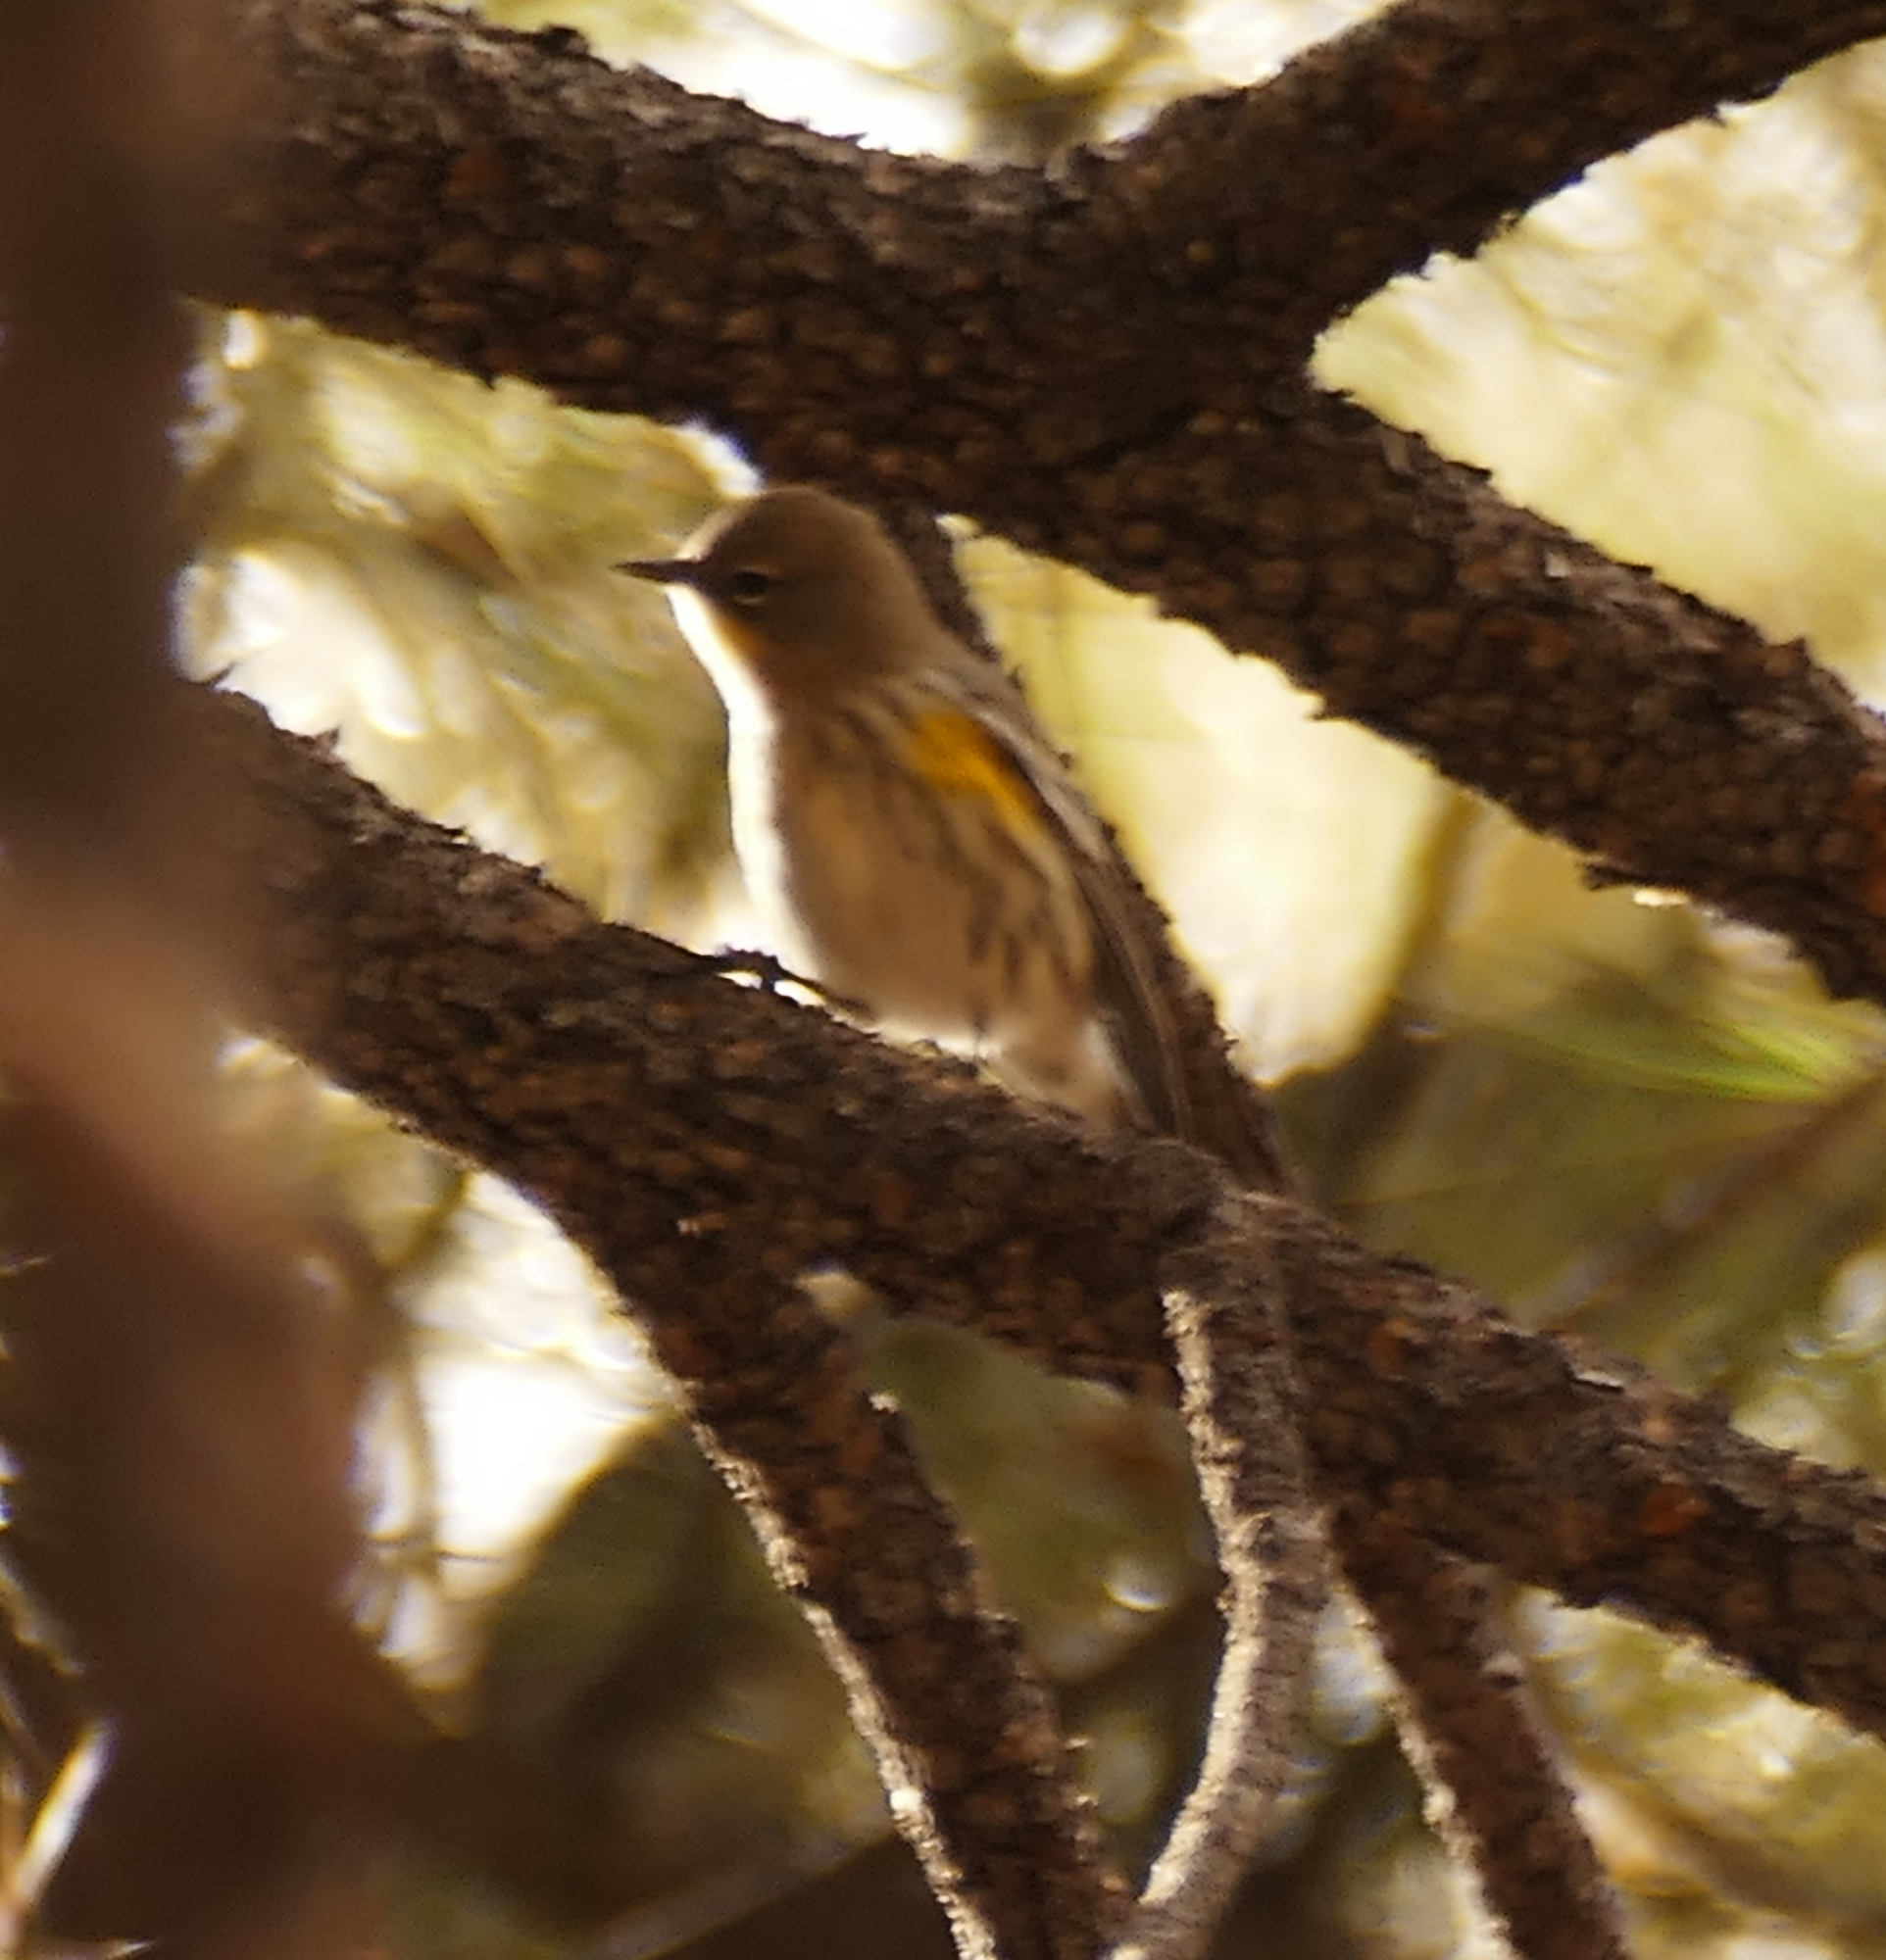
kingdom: Animalia
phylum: Chordata
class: Aves
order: Passeriformes
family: Parulidae
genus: Setophaga
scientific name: Setophaga auduboni
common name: Audubon's warbler
